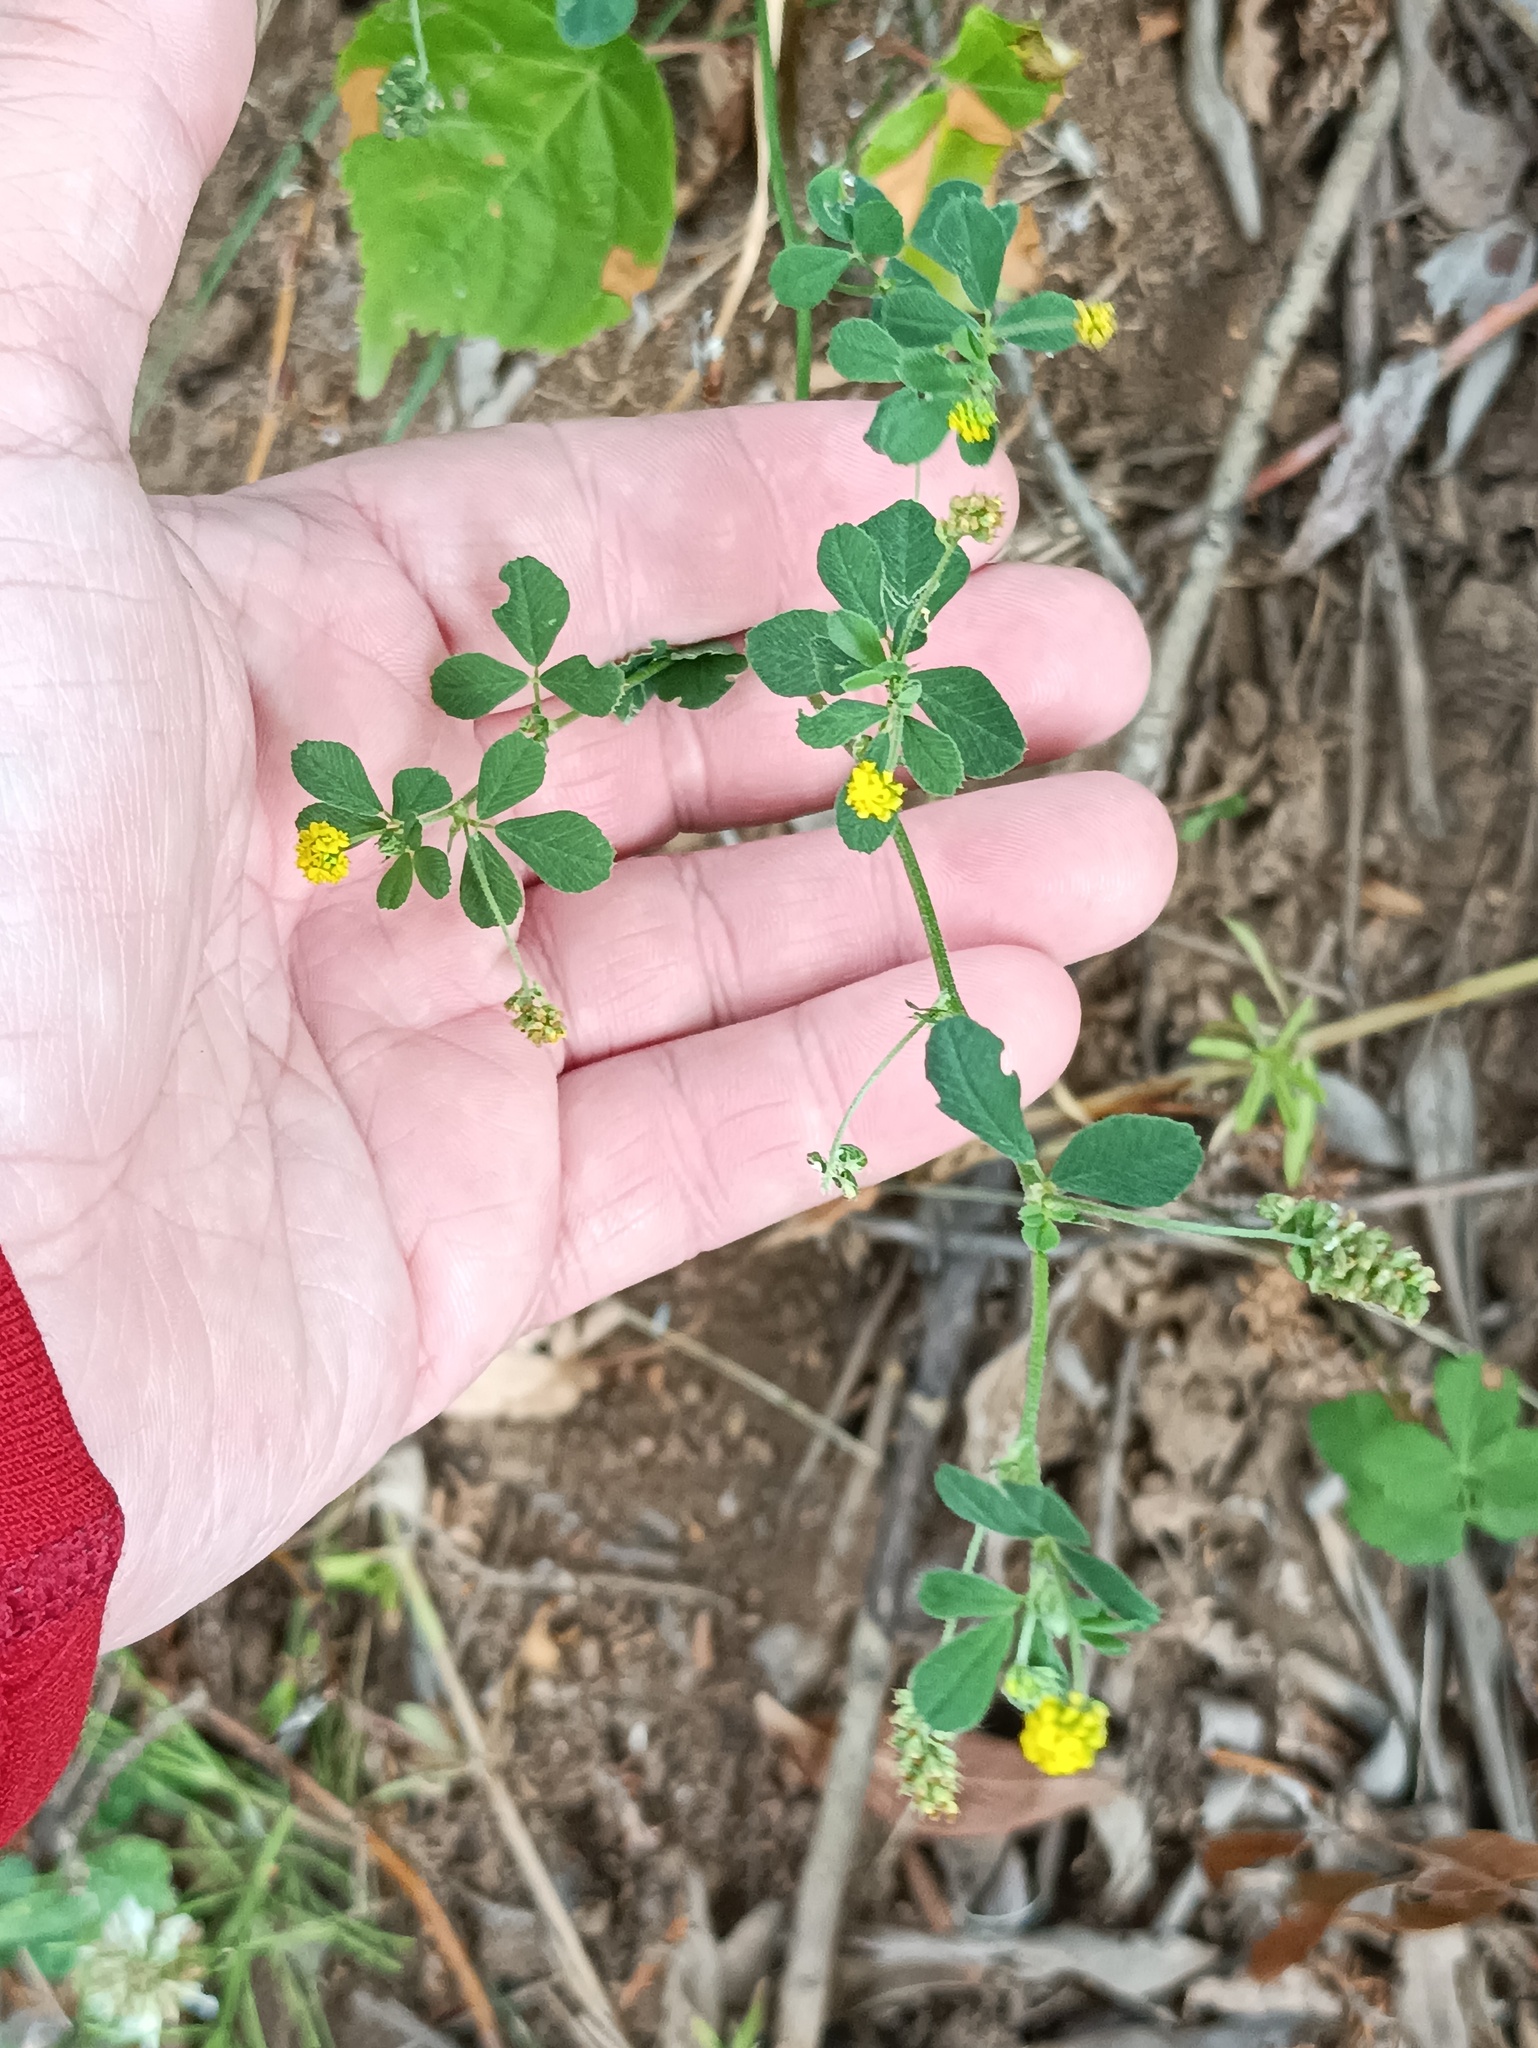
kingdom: Plantae
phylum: Tracheophyta
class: Magnoliopsida
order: Fabales
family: Fabaceae
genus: Medicago
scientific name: Medicago lupulina
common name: Black medick
